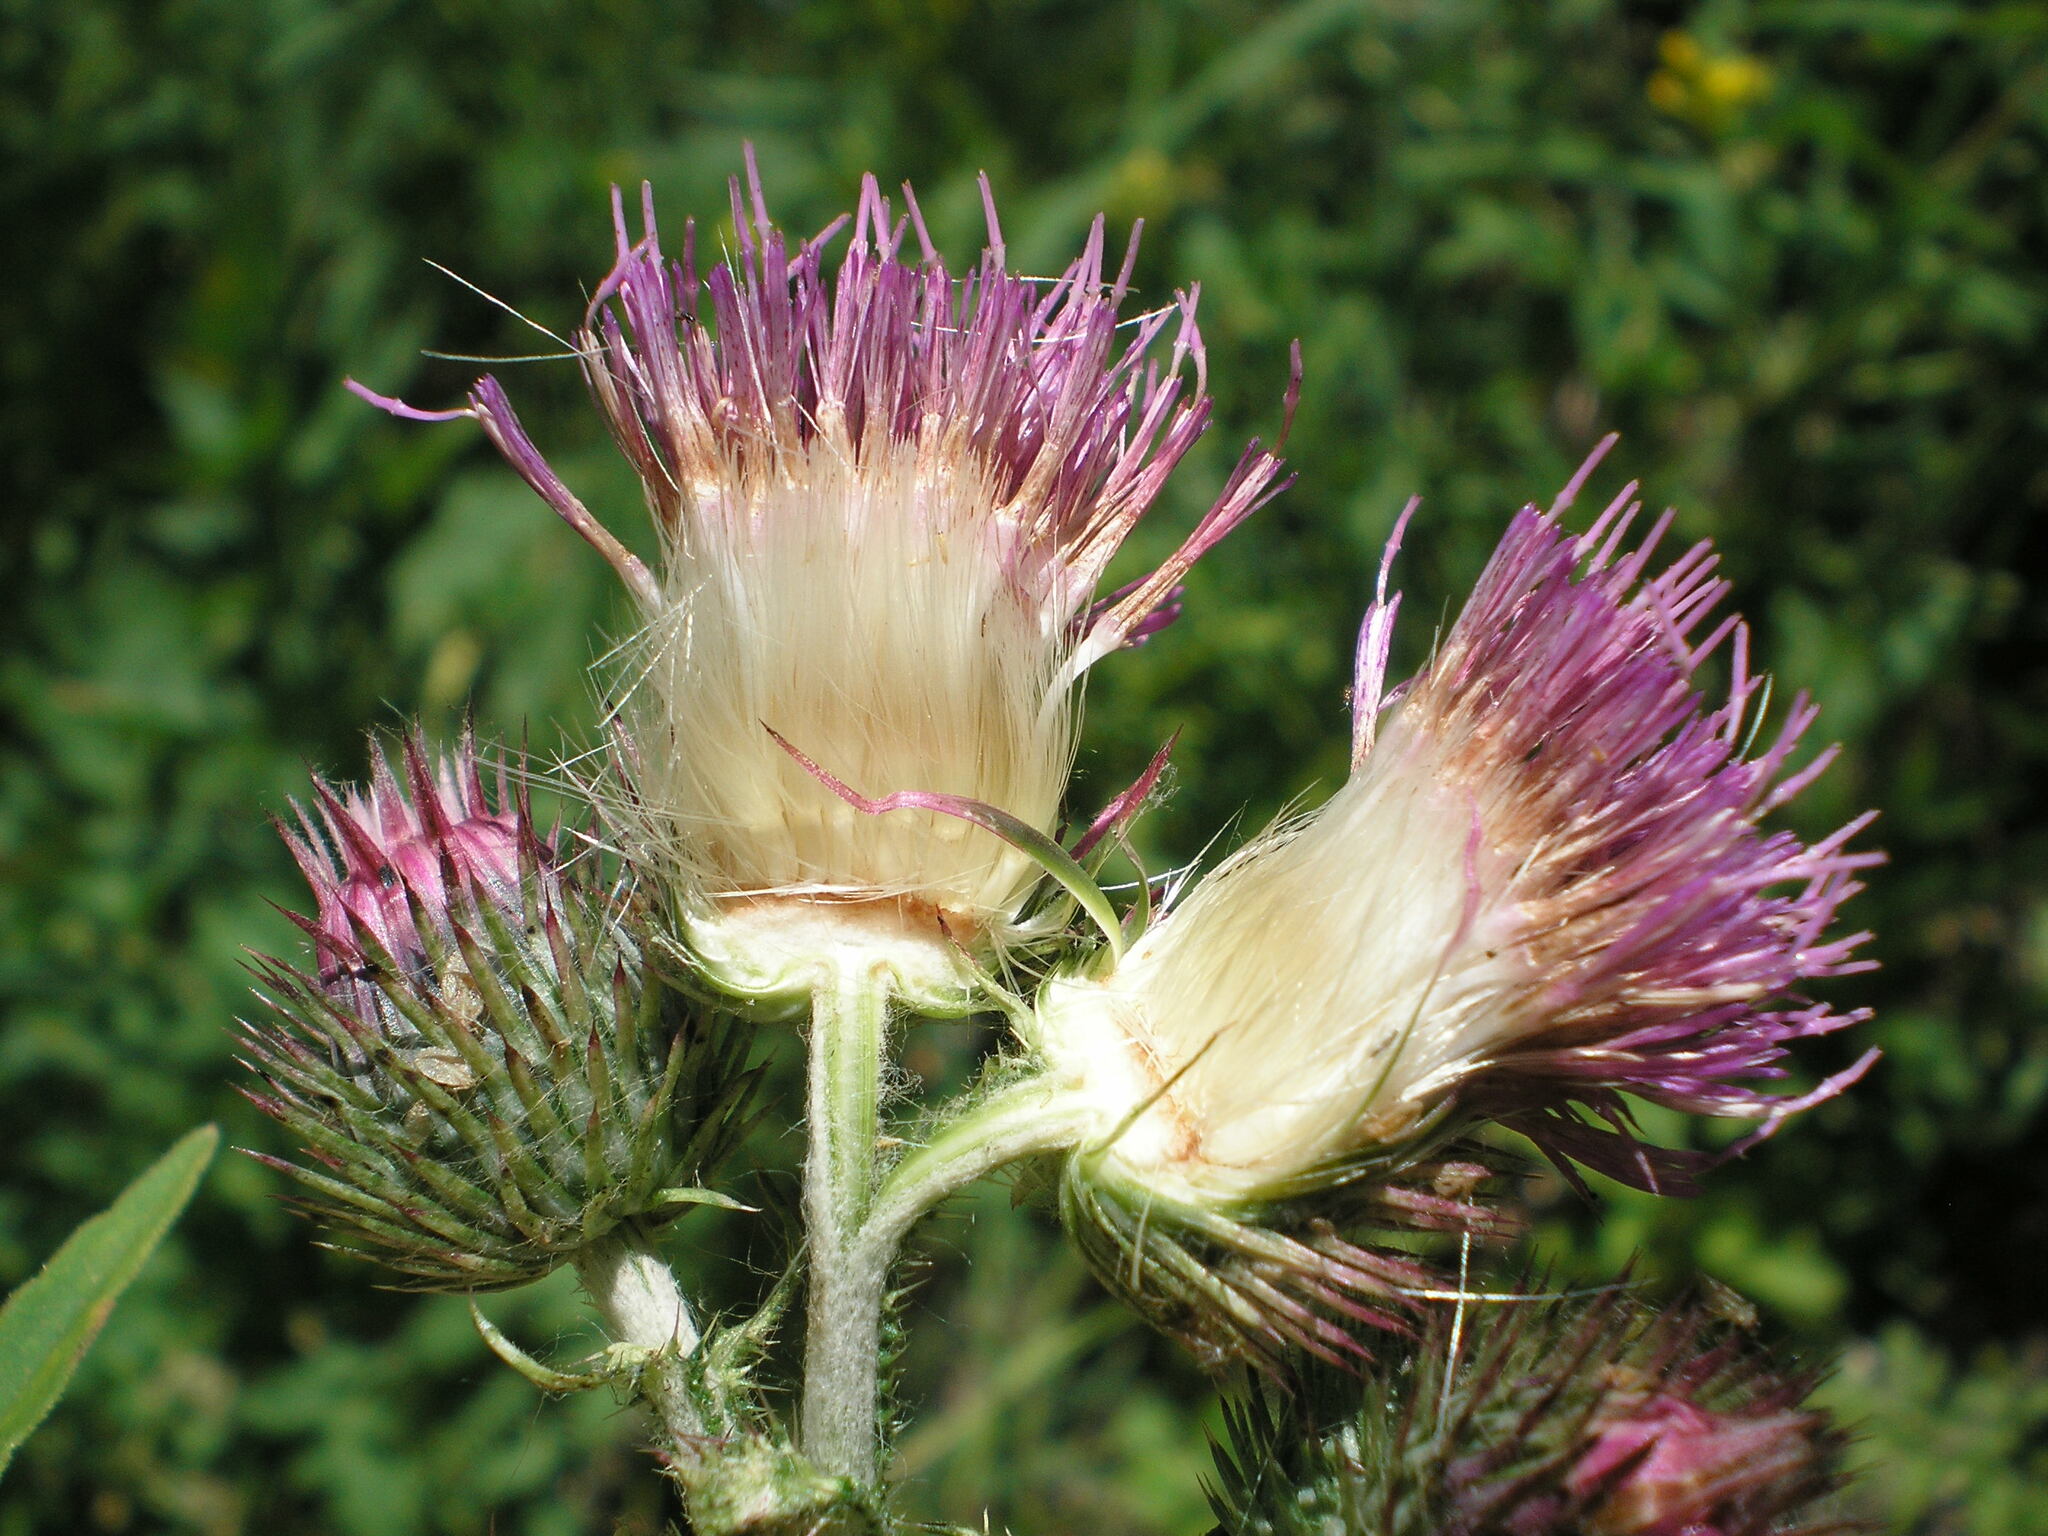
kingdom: Plantae
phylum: Tracheophyta
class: Magnoliopsida
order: Asterales
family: Asteraceae
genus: Carduus
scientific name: Carduus crispus
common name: Welted thistle
